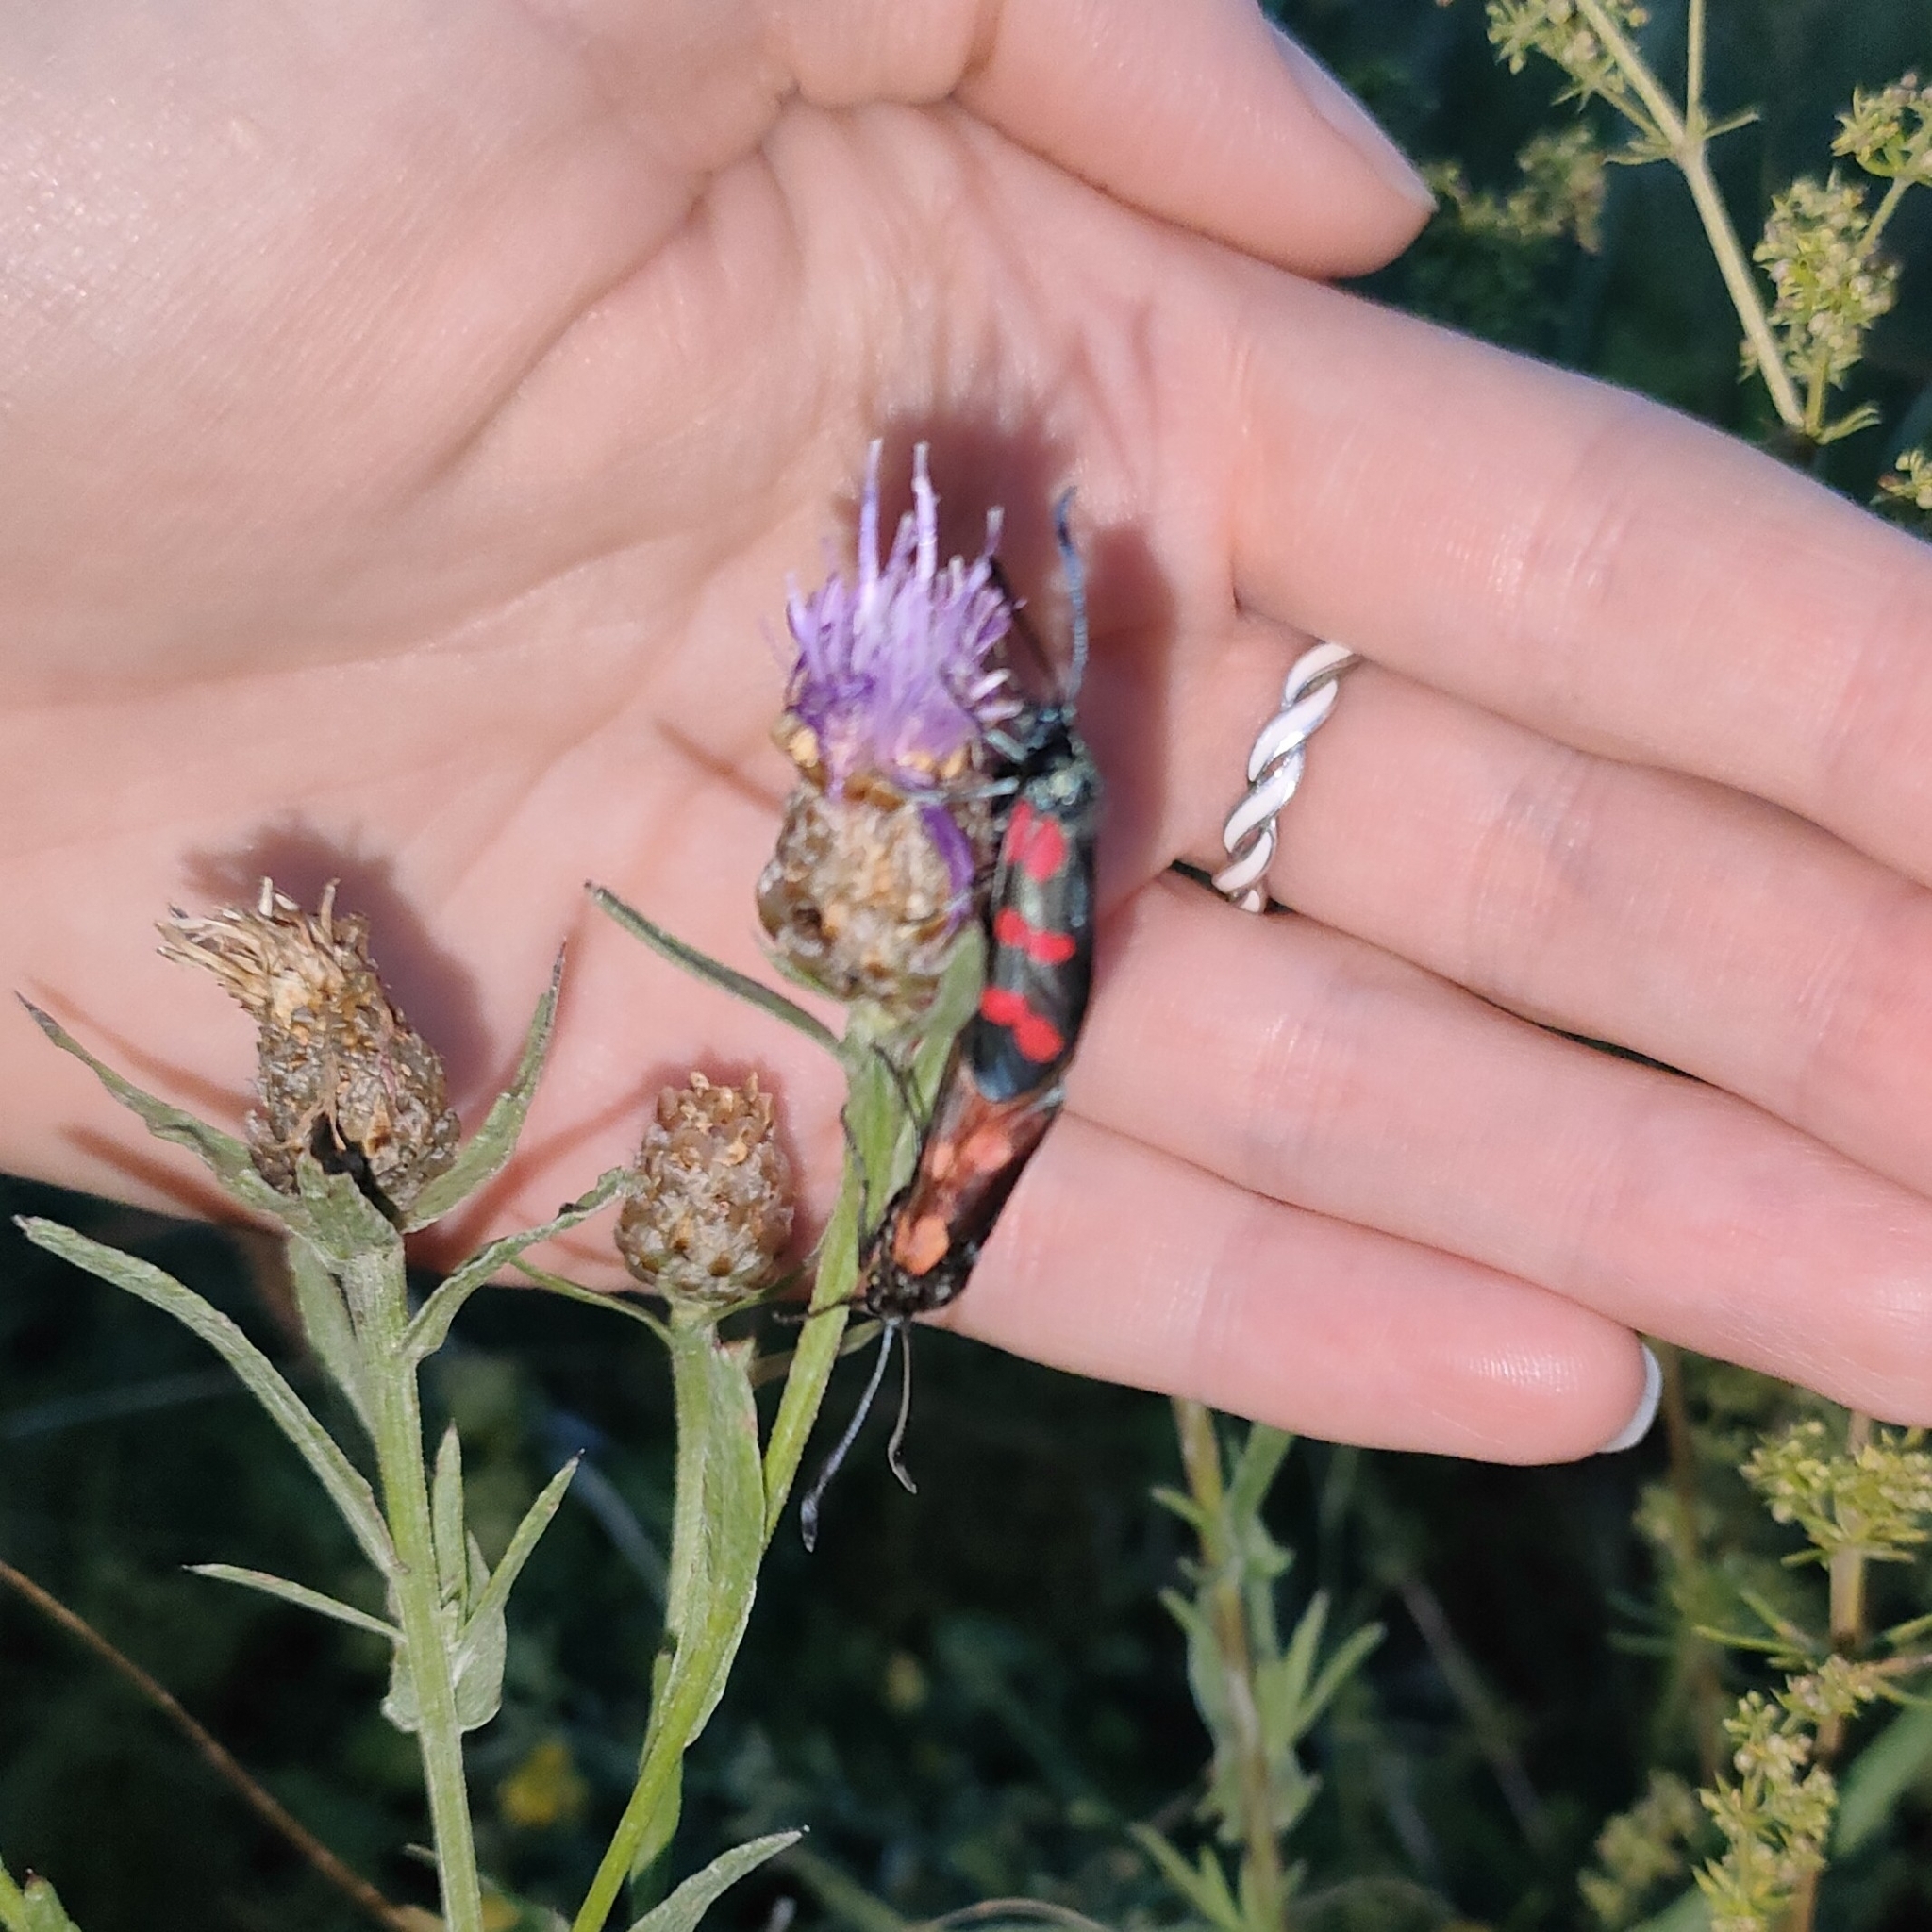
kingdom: Animalia
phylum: Arthropoda
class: Insecta
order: Lepidoptera
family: Zygaenidae
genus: Zygaena
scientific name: Zygaena filipendulae
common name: Six-spot burnet
